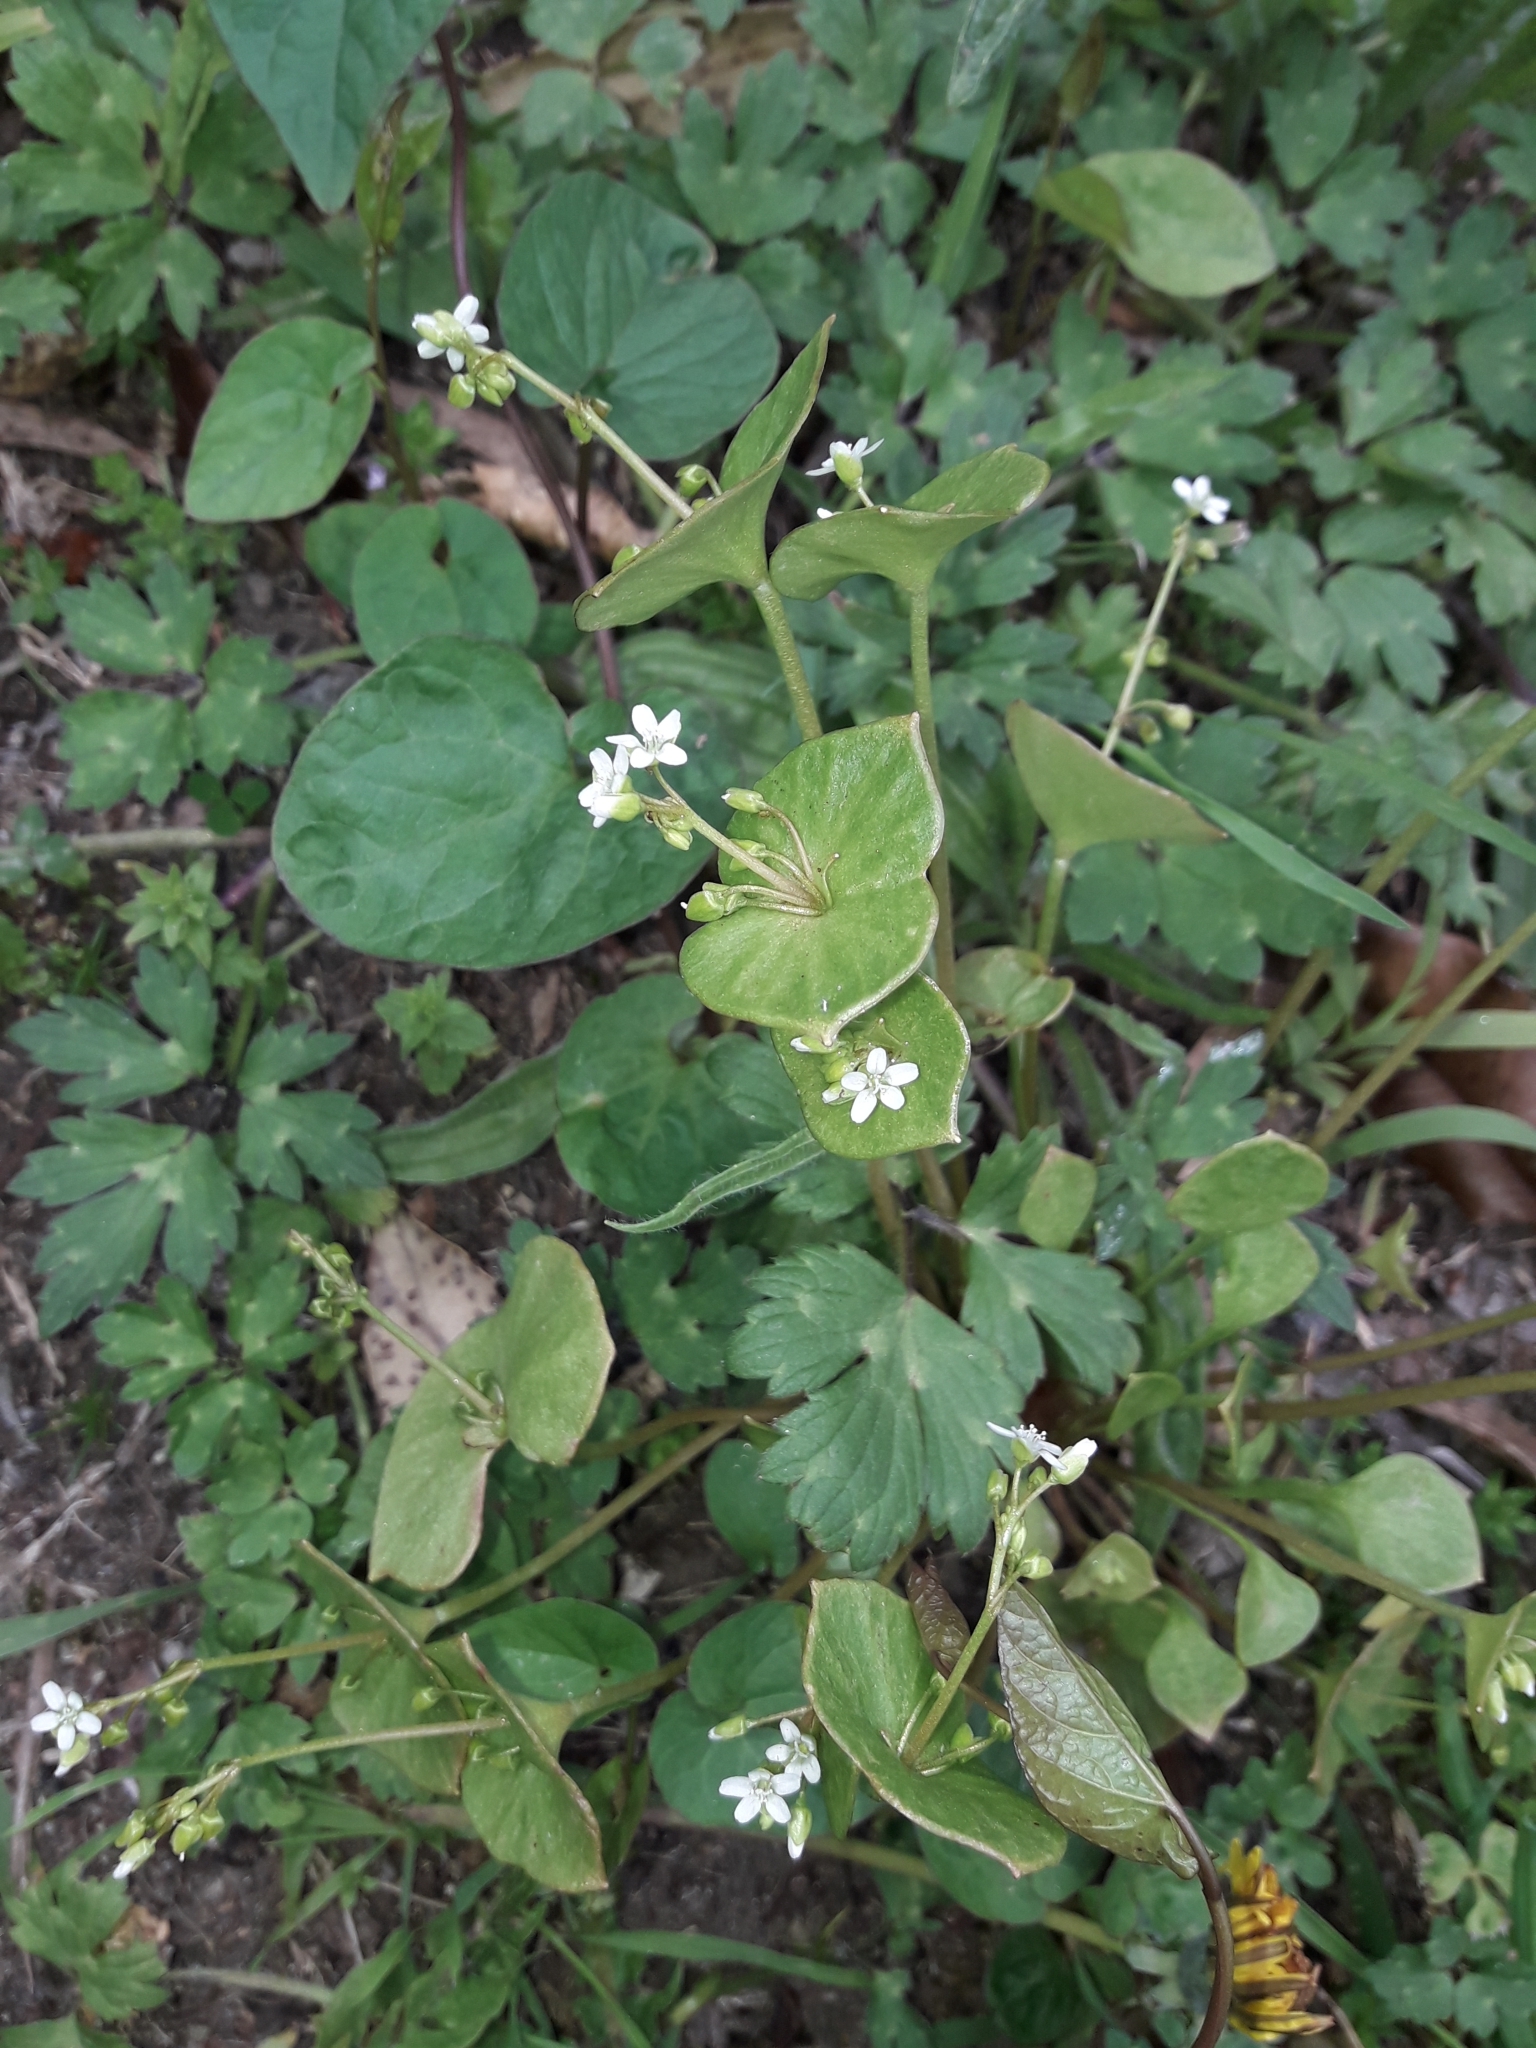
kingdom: Plantae
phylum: Tracheophyta
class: Magnoliopsida
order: Caryophyllales
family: Montiaceae
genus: Claytonia
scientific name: Claytonia perfoliata
